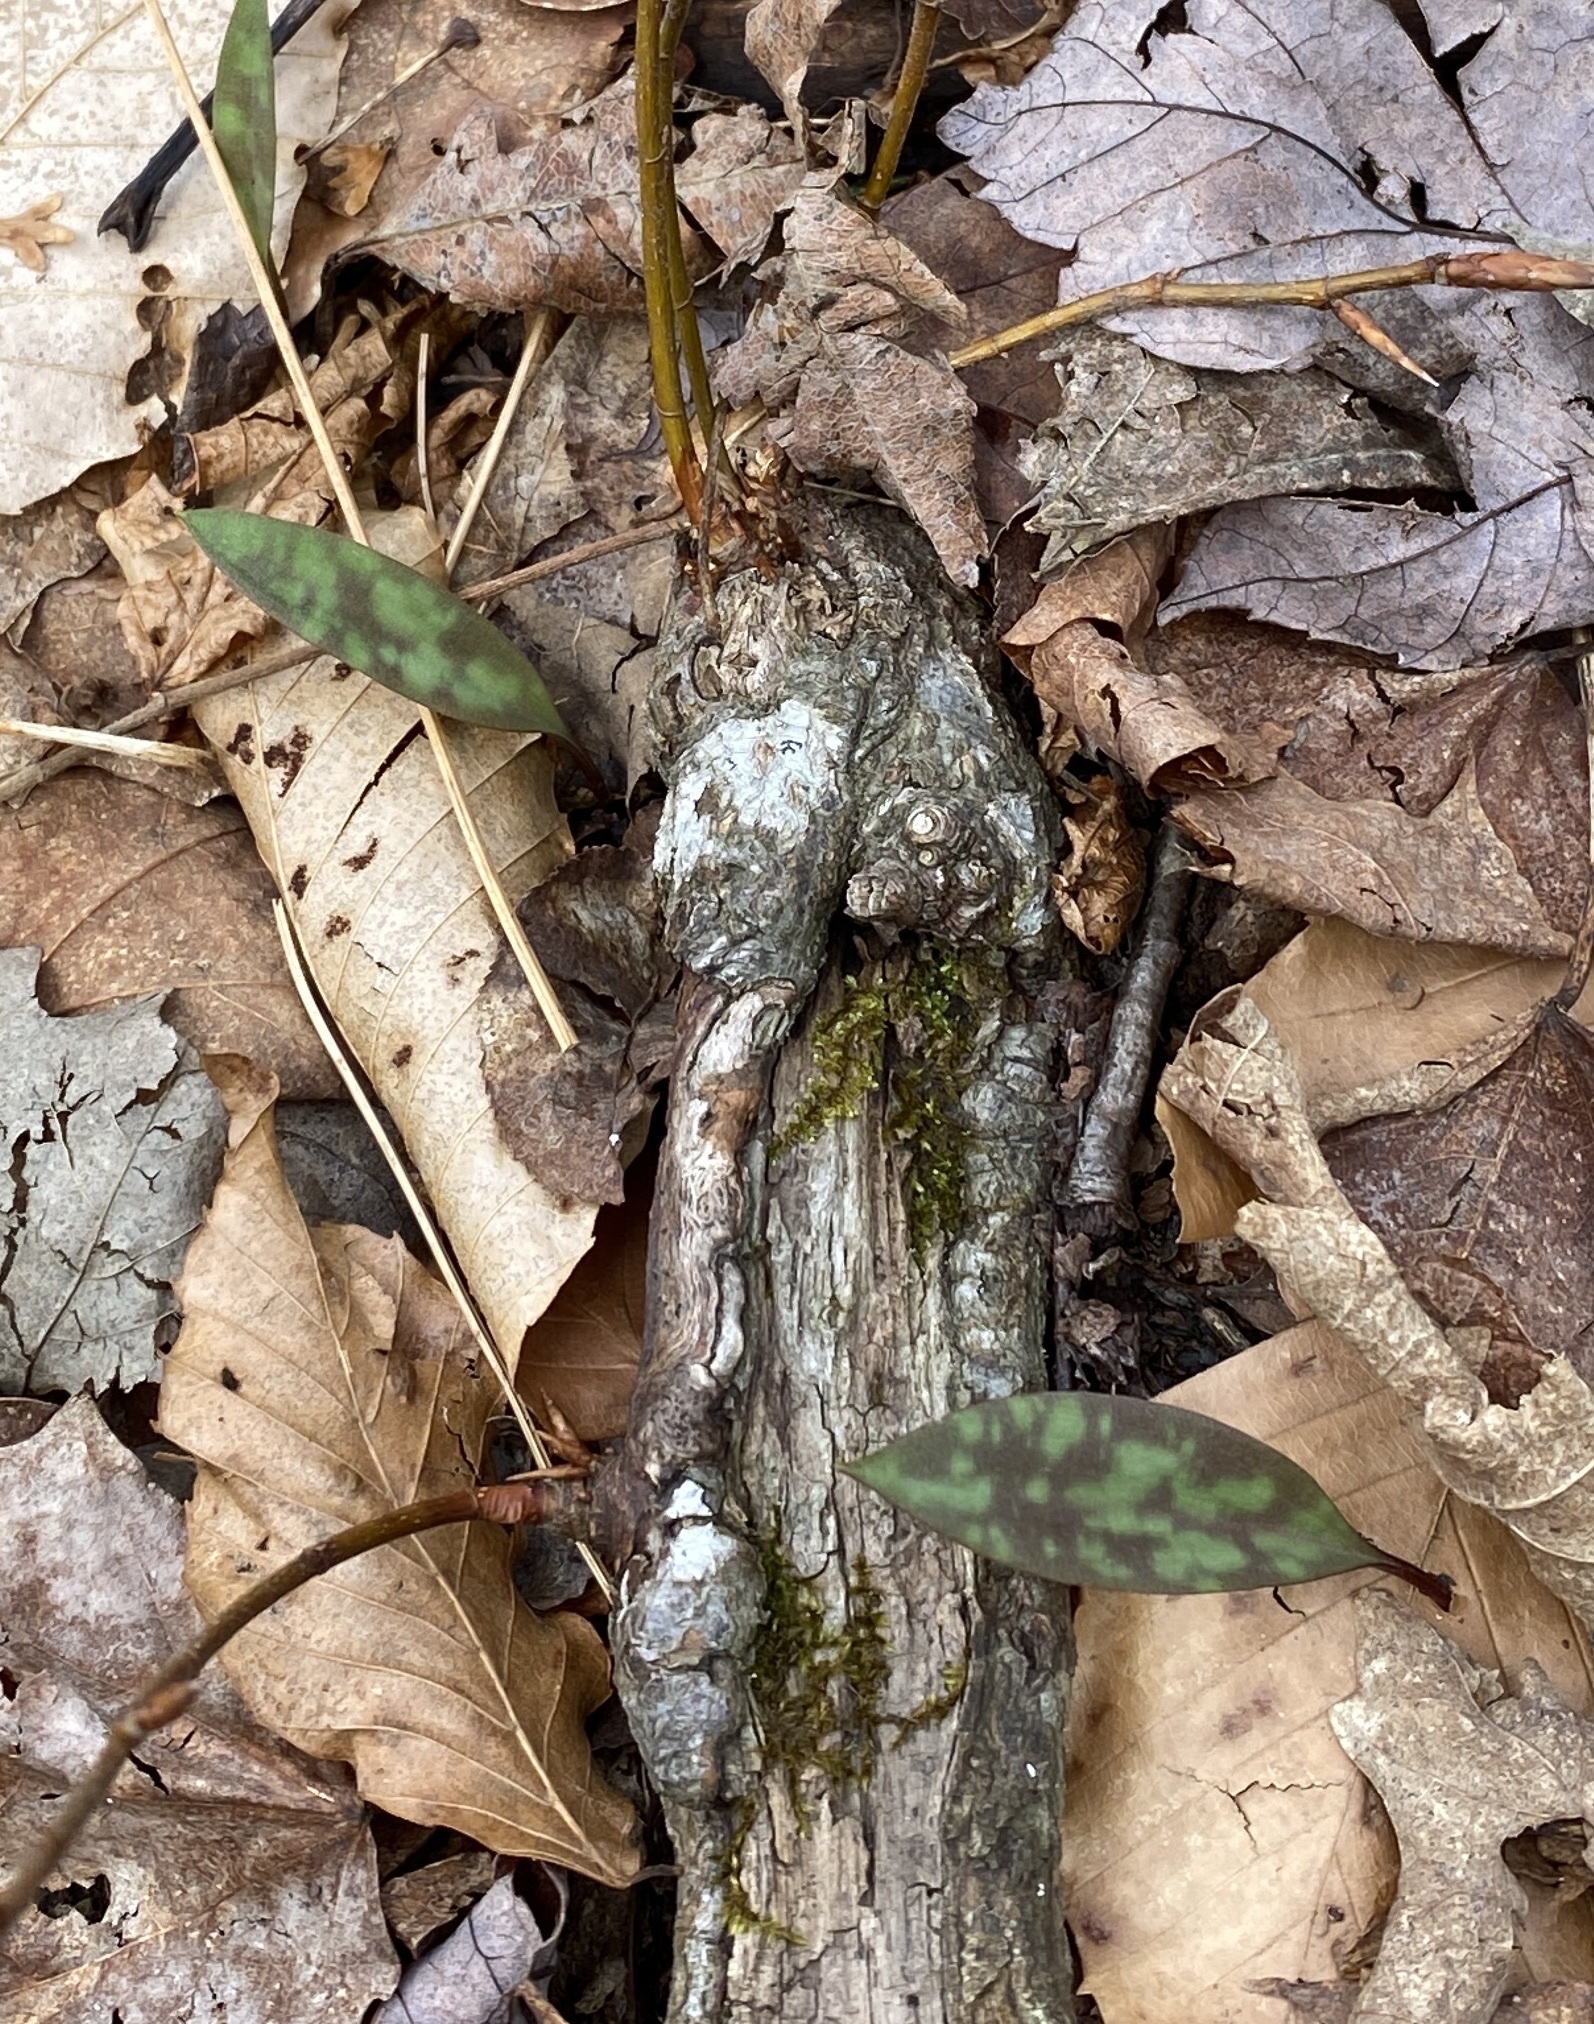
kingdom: Plantae
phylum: Tracheophyta
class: Liliopsida
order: Liliales
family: Liliaceae
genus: Erythronium
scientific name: Erythronium americanum
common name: Yellow adder's-tongue
